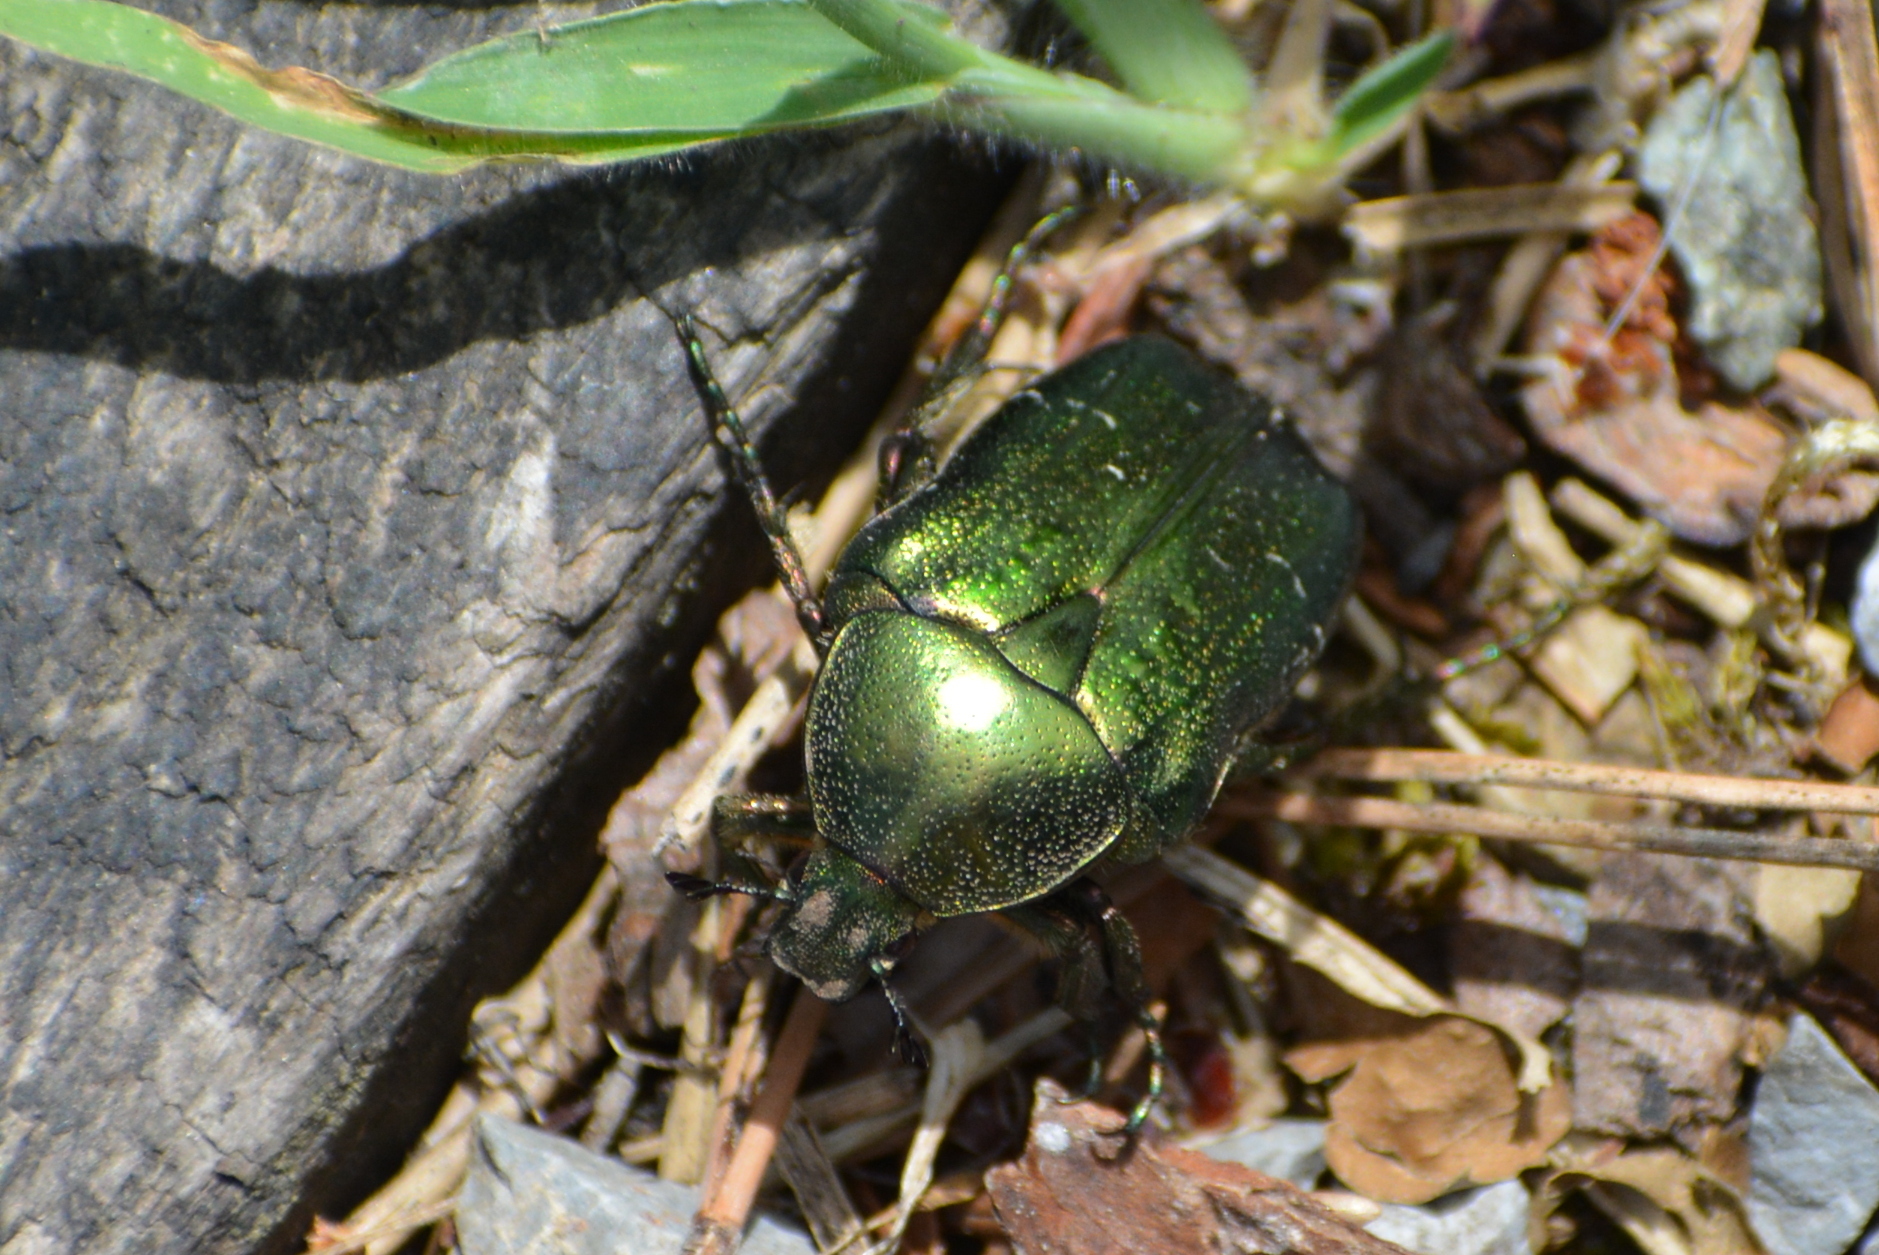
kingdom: Animalia
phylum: Arthropoda
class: Insecta
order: Coleoptera
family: Scarabaeidae
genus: Cetonia
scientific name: Cetonia aurata
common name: Rose chafer
